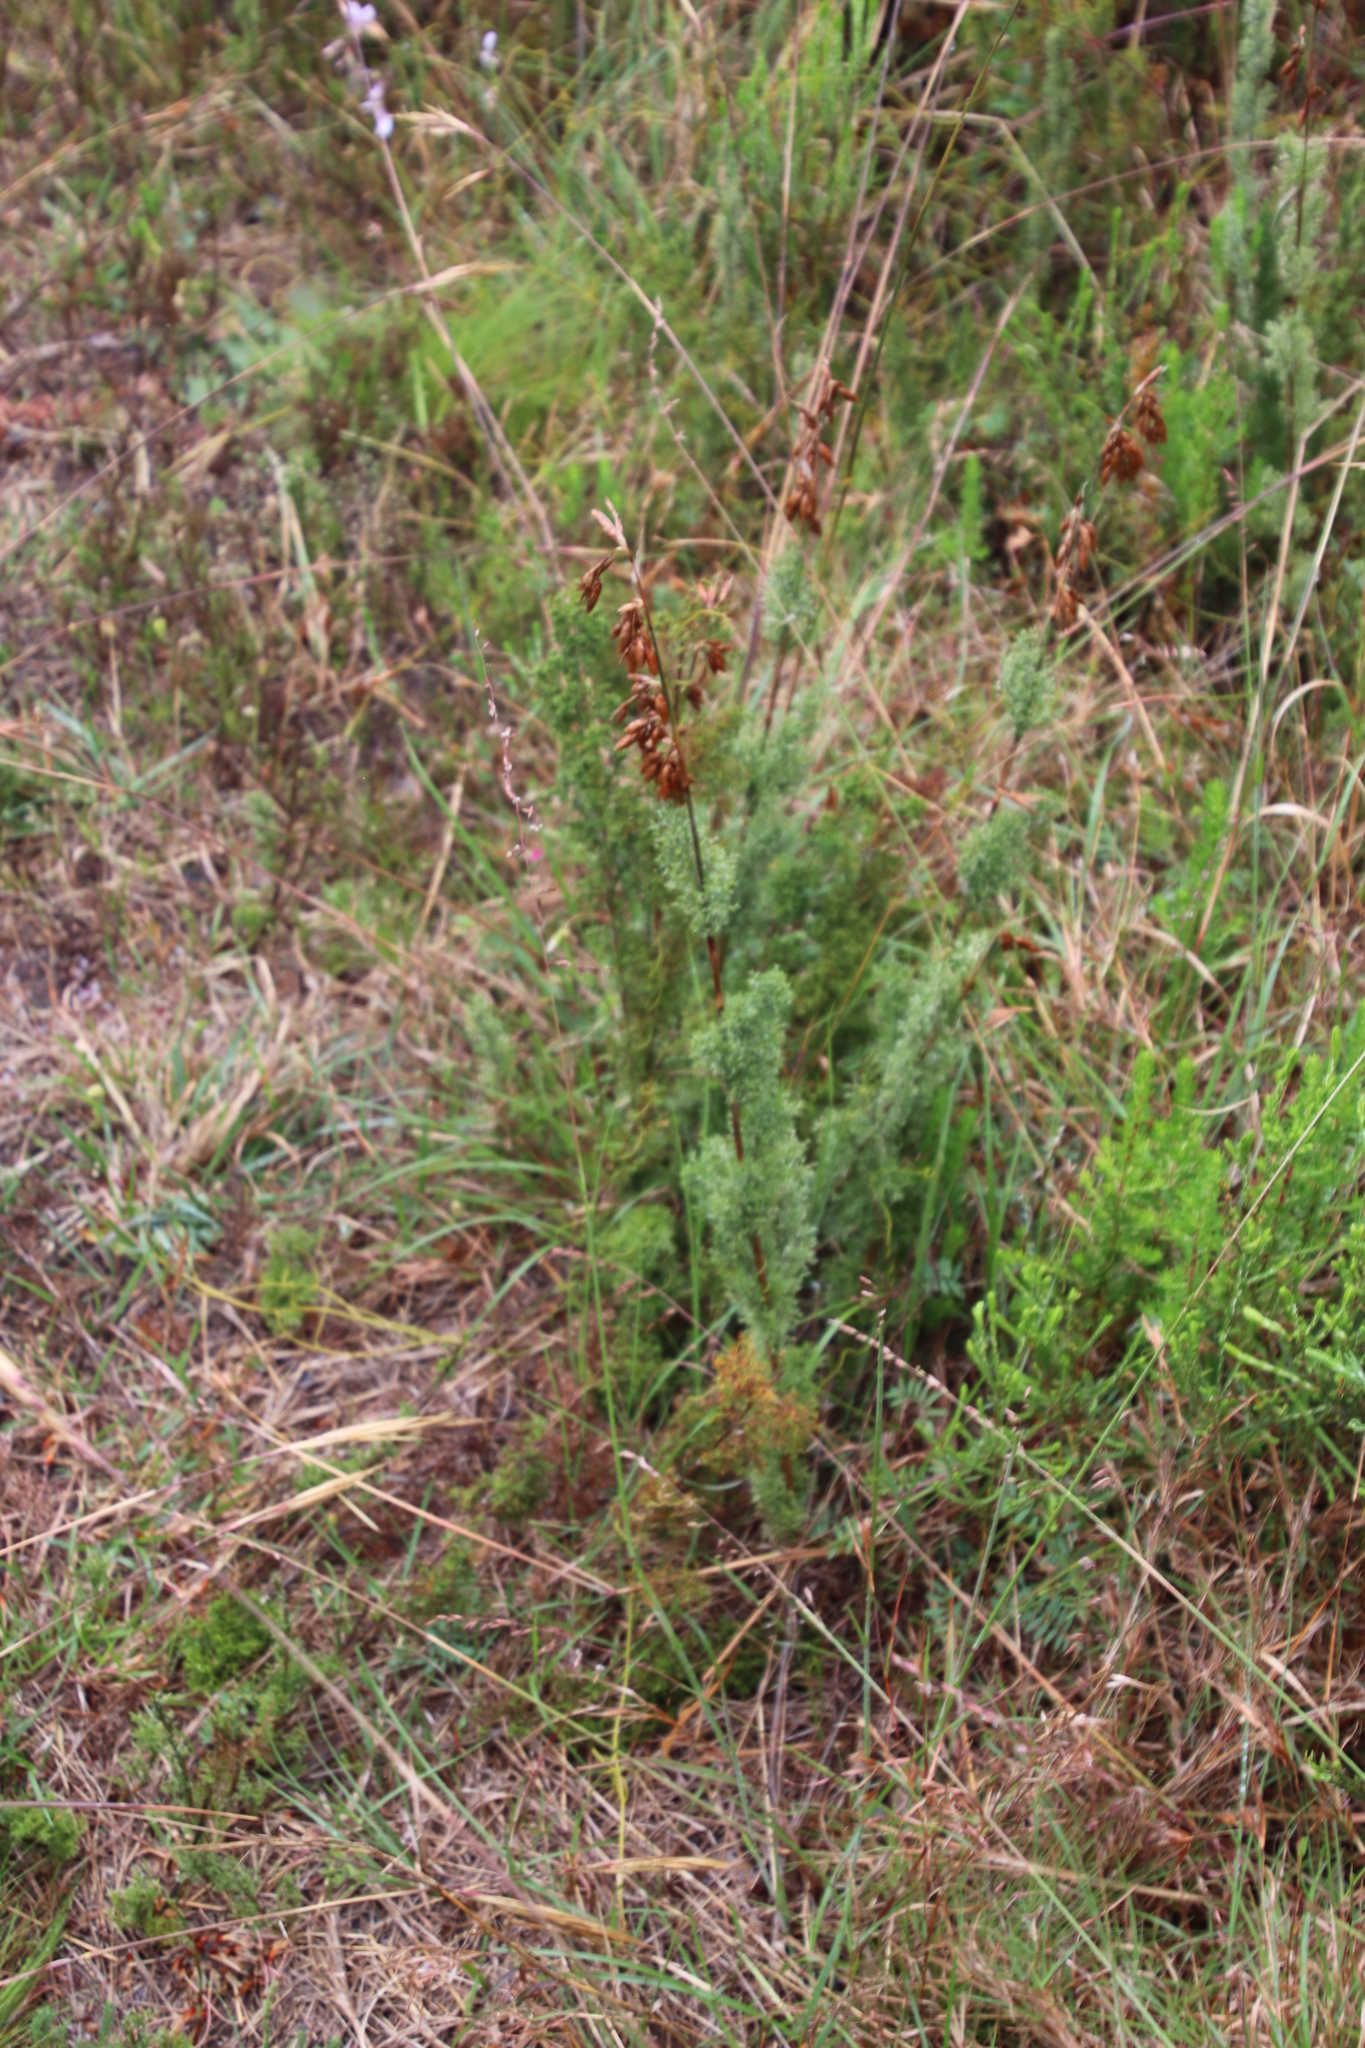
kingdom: Plantae
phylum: Tracheophyta
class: Liliopsida
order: Poales
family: Restionaceae
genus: Thamnochortus
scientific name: Thamnochortus fruticosus
